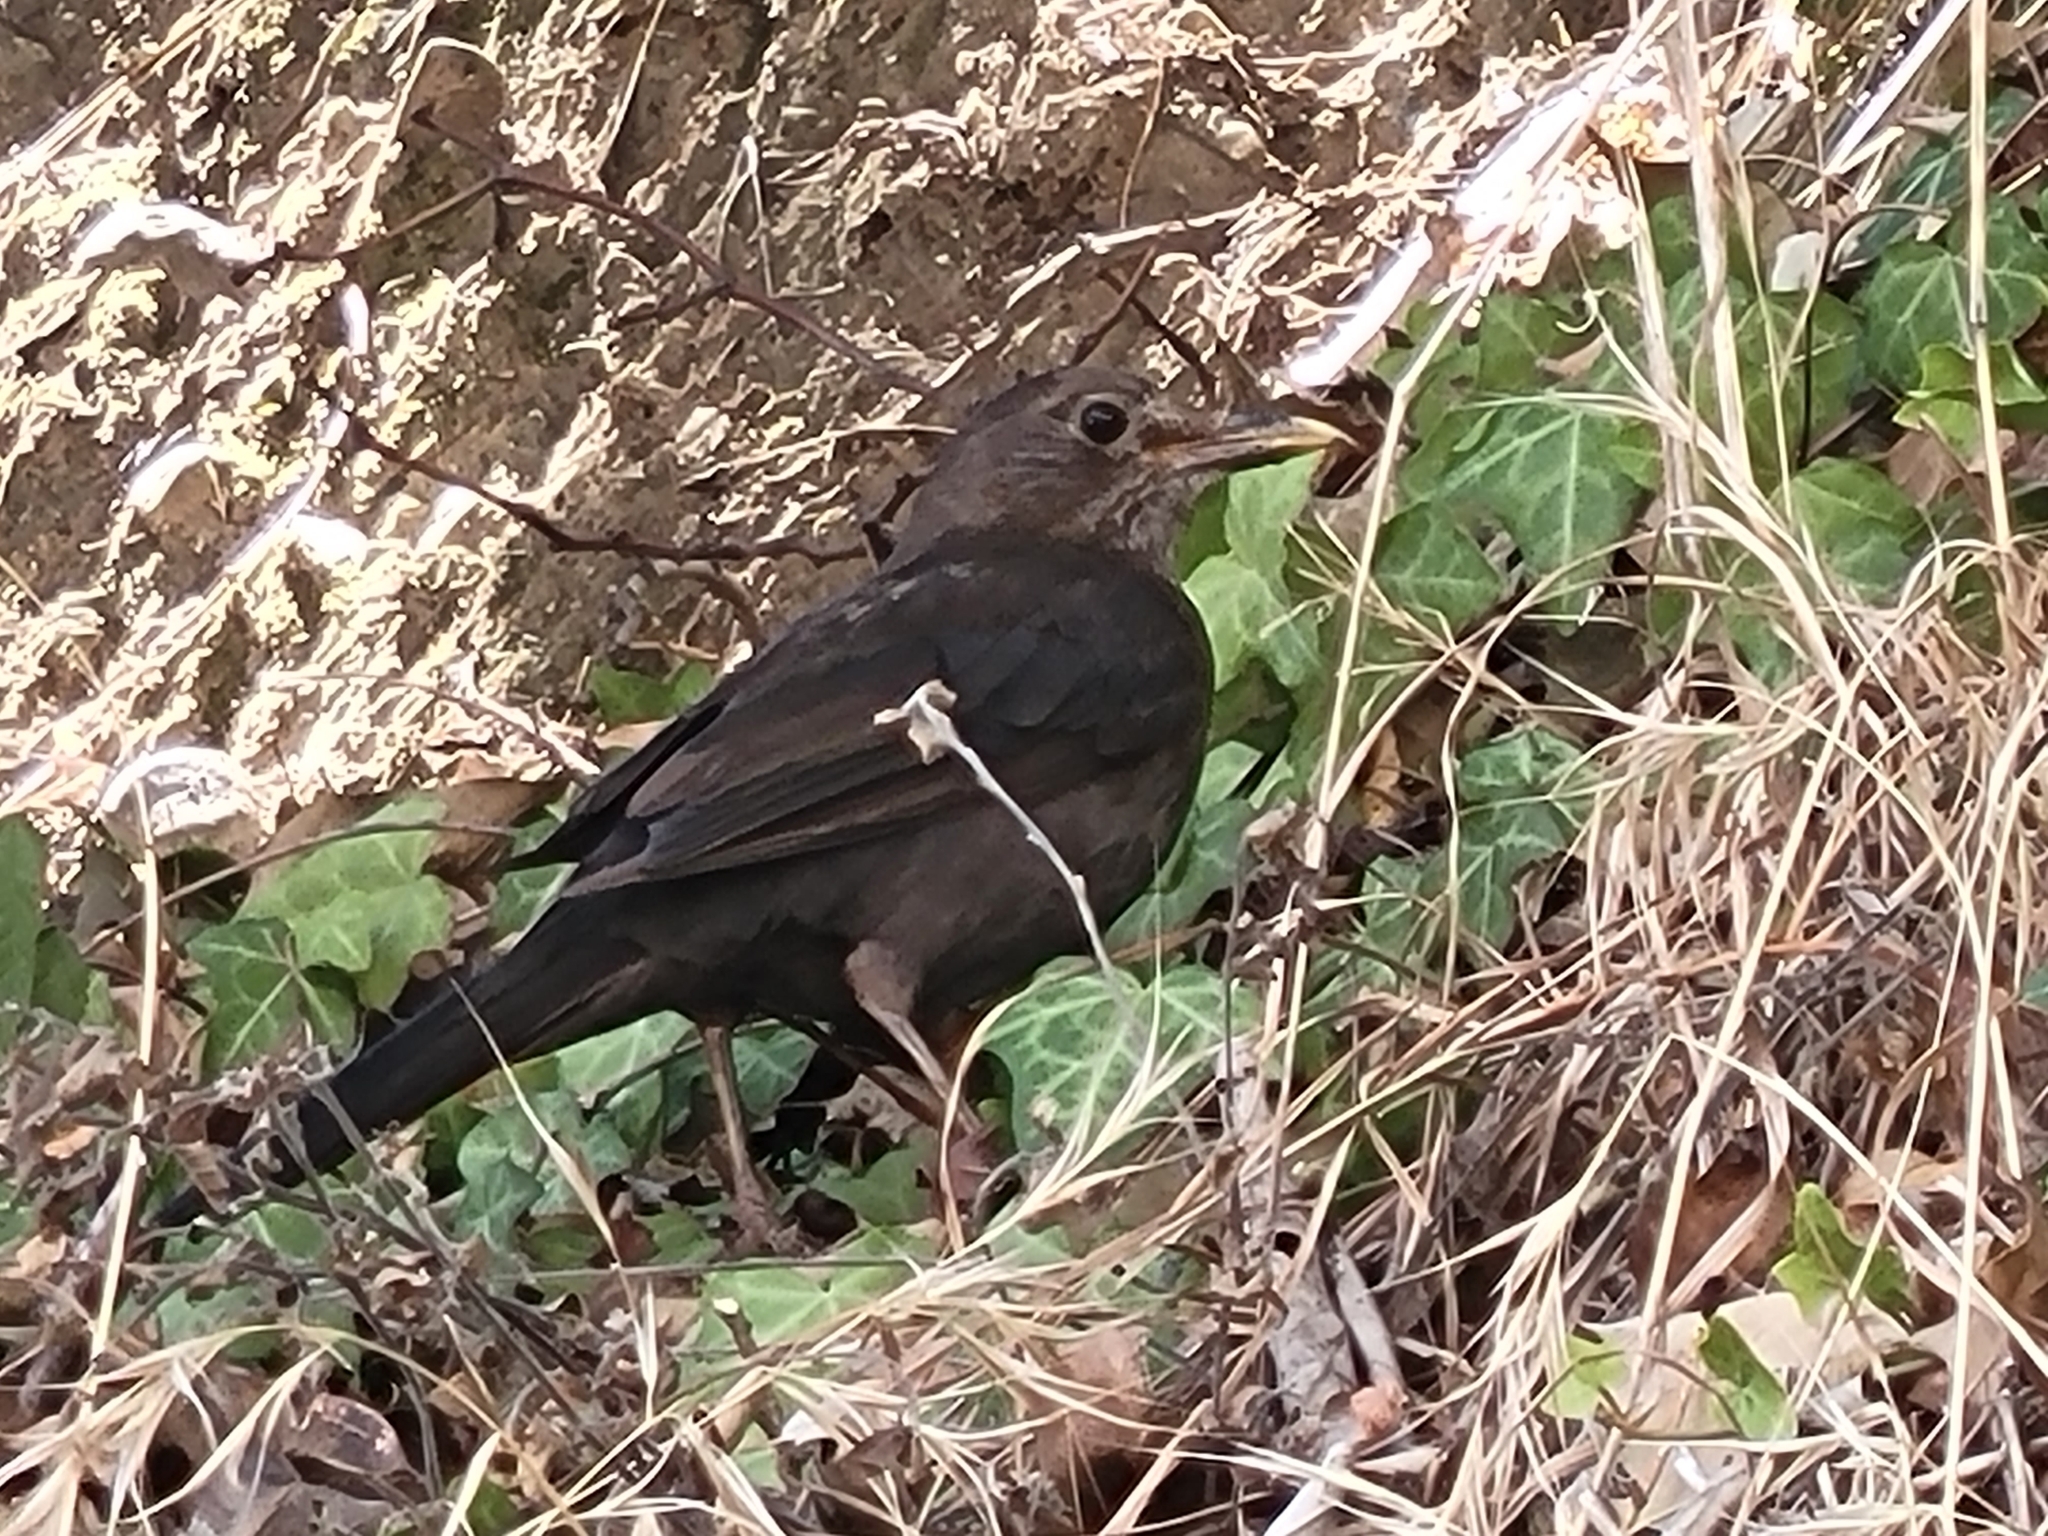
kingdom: Animalia
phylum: Chordata
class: Aves
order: Passeriformes
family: Turdidae
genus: Turdus
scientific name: Turdus merula
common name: Common blackbird
